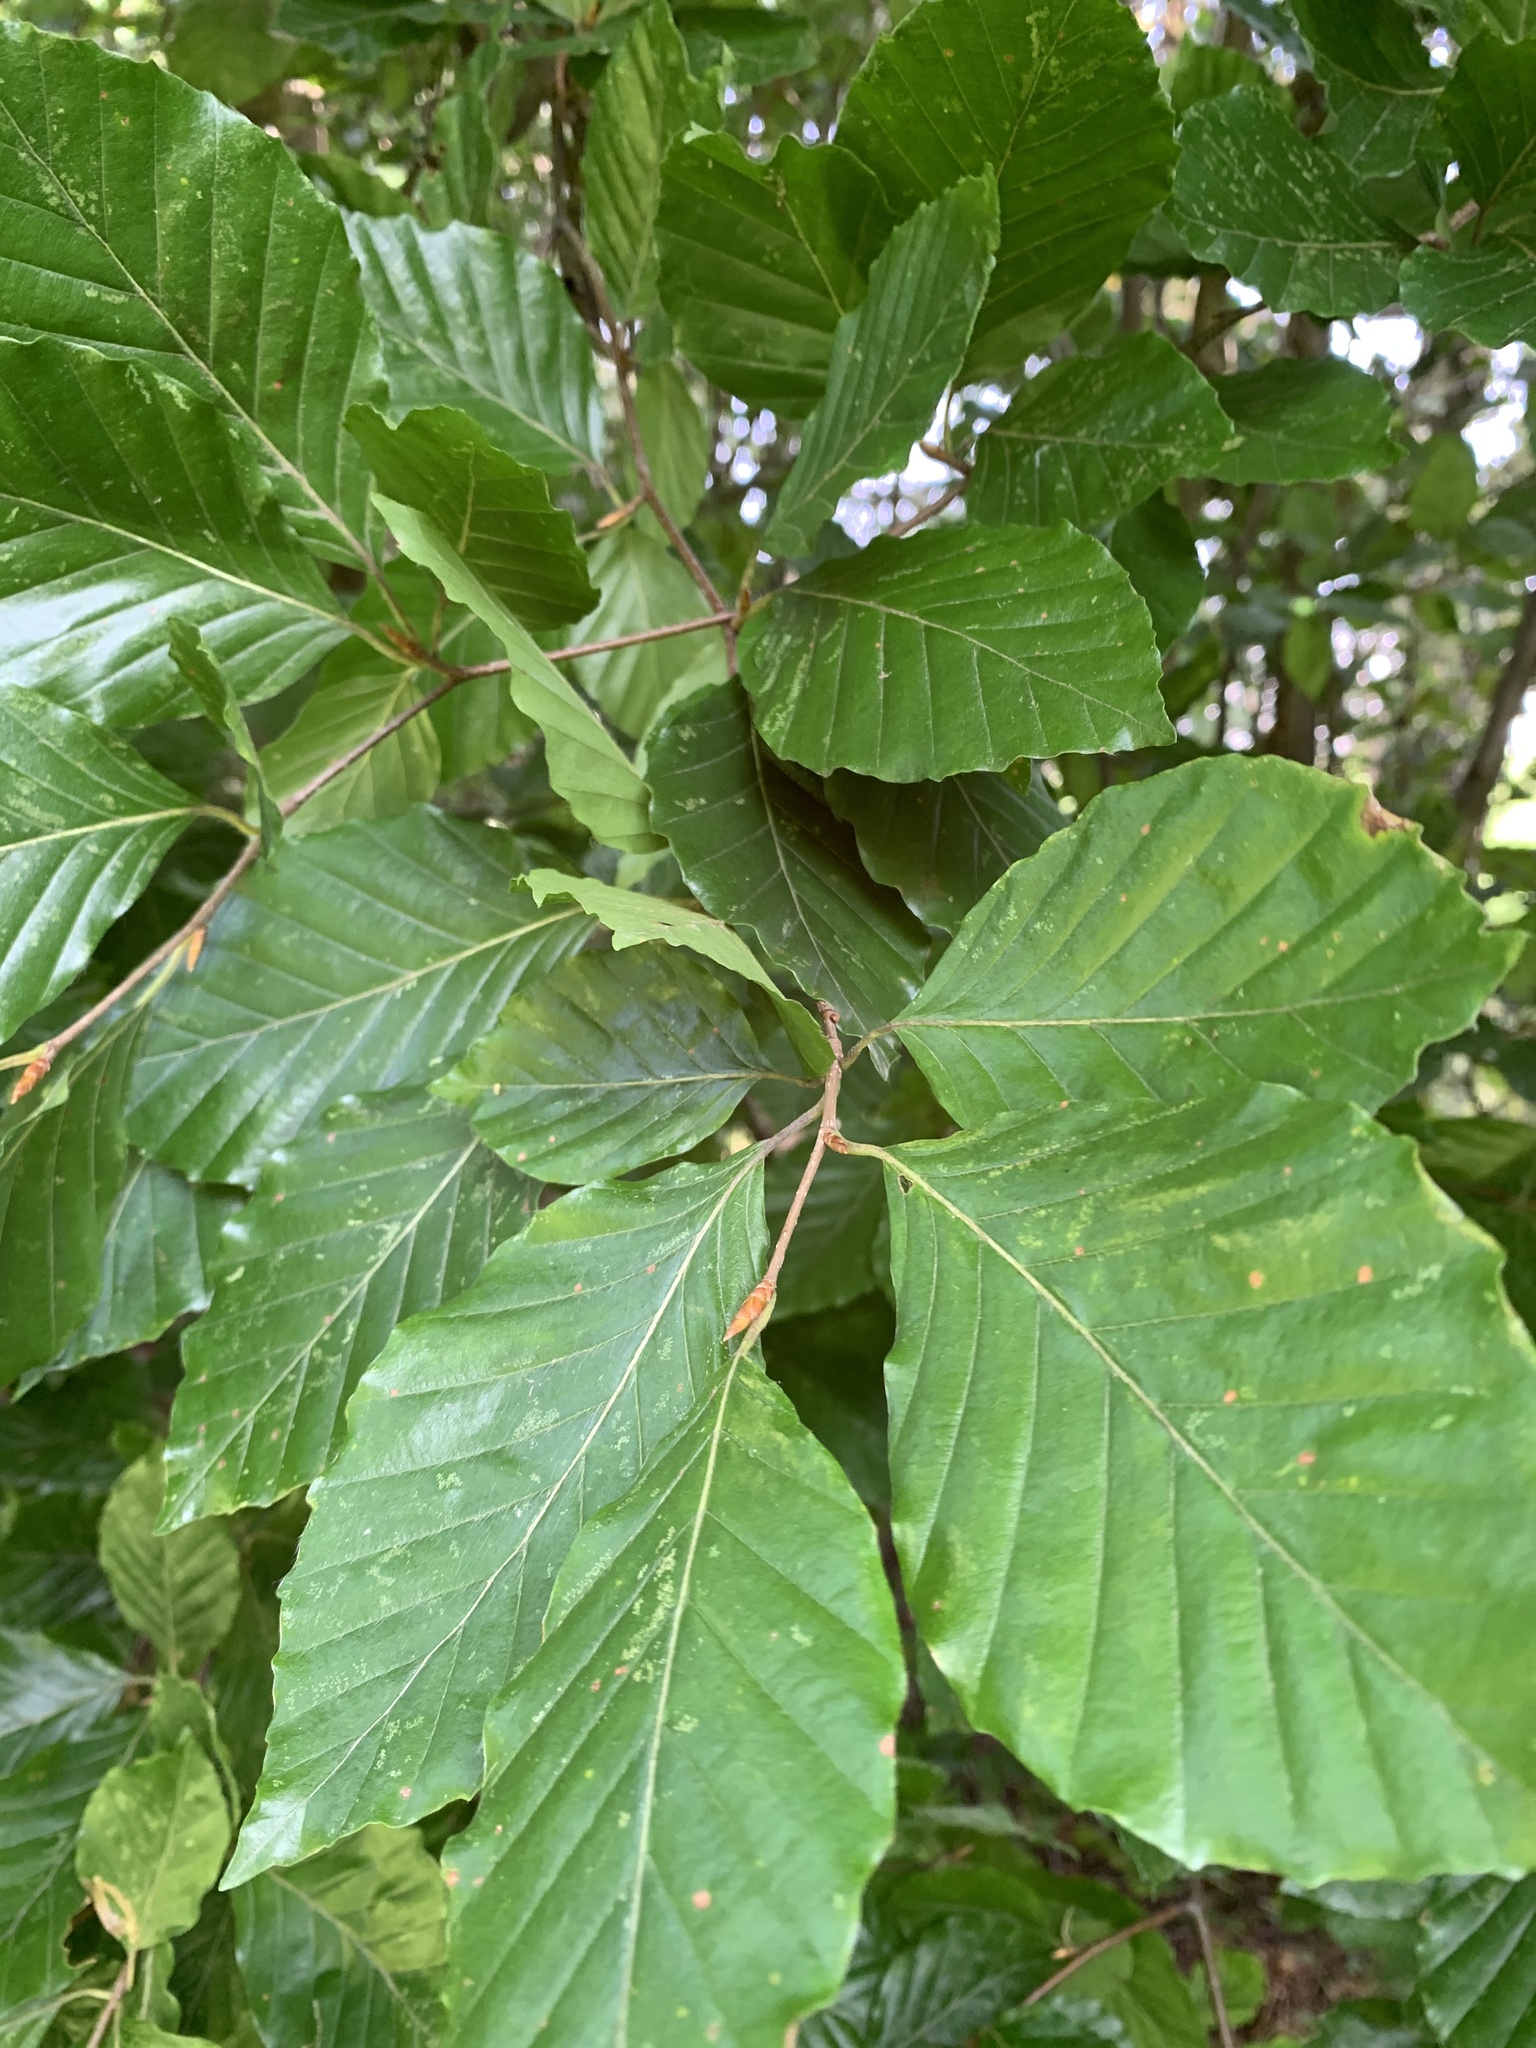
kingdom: Plantae
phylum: Tracheophyta
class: Magnoliopsida
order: Fagales
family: Fagaceae
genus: Fagus
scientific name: Fagus sylvatica
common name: Beech
